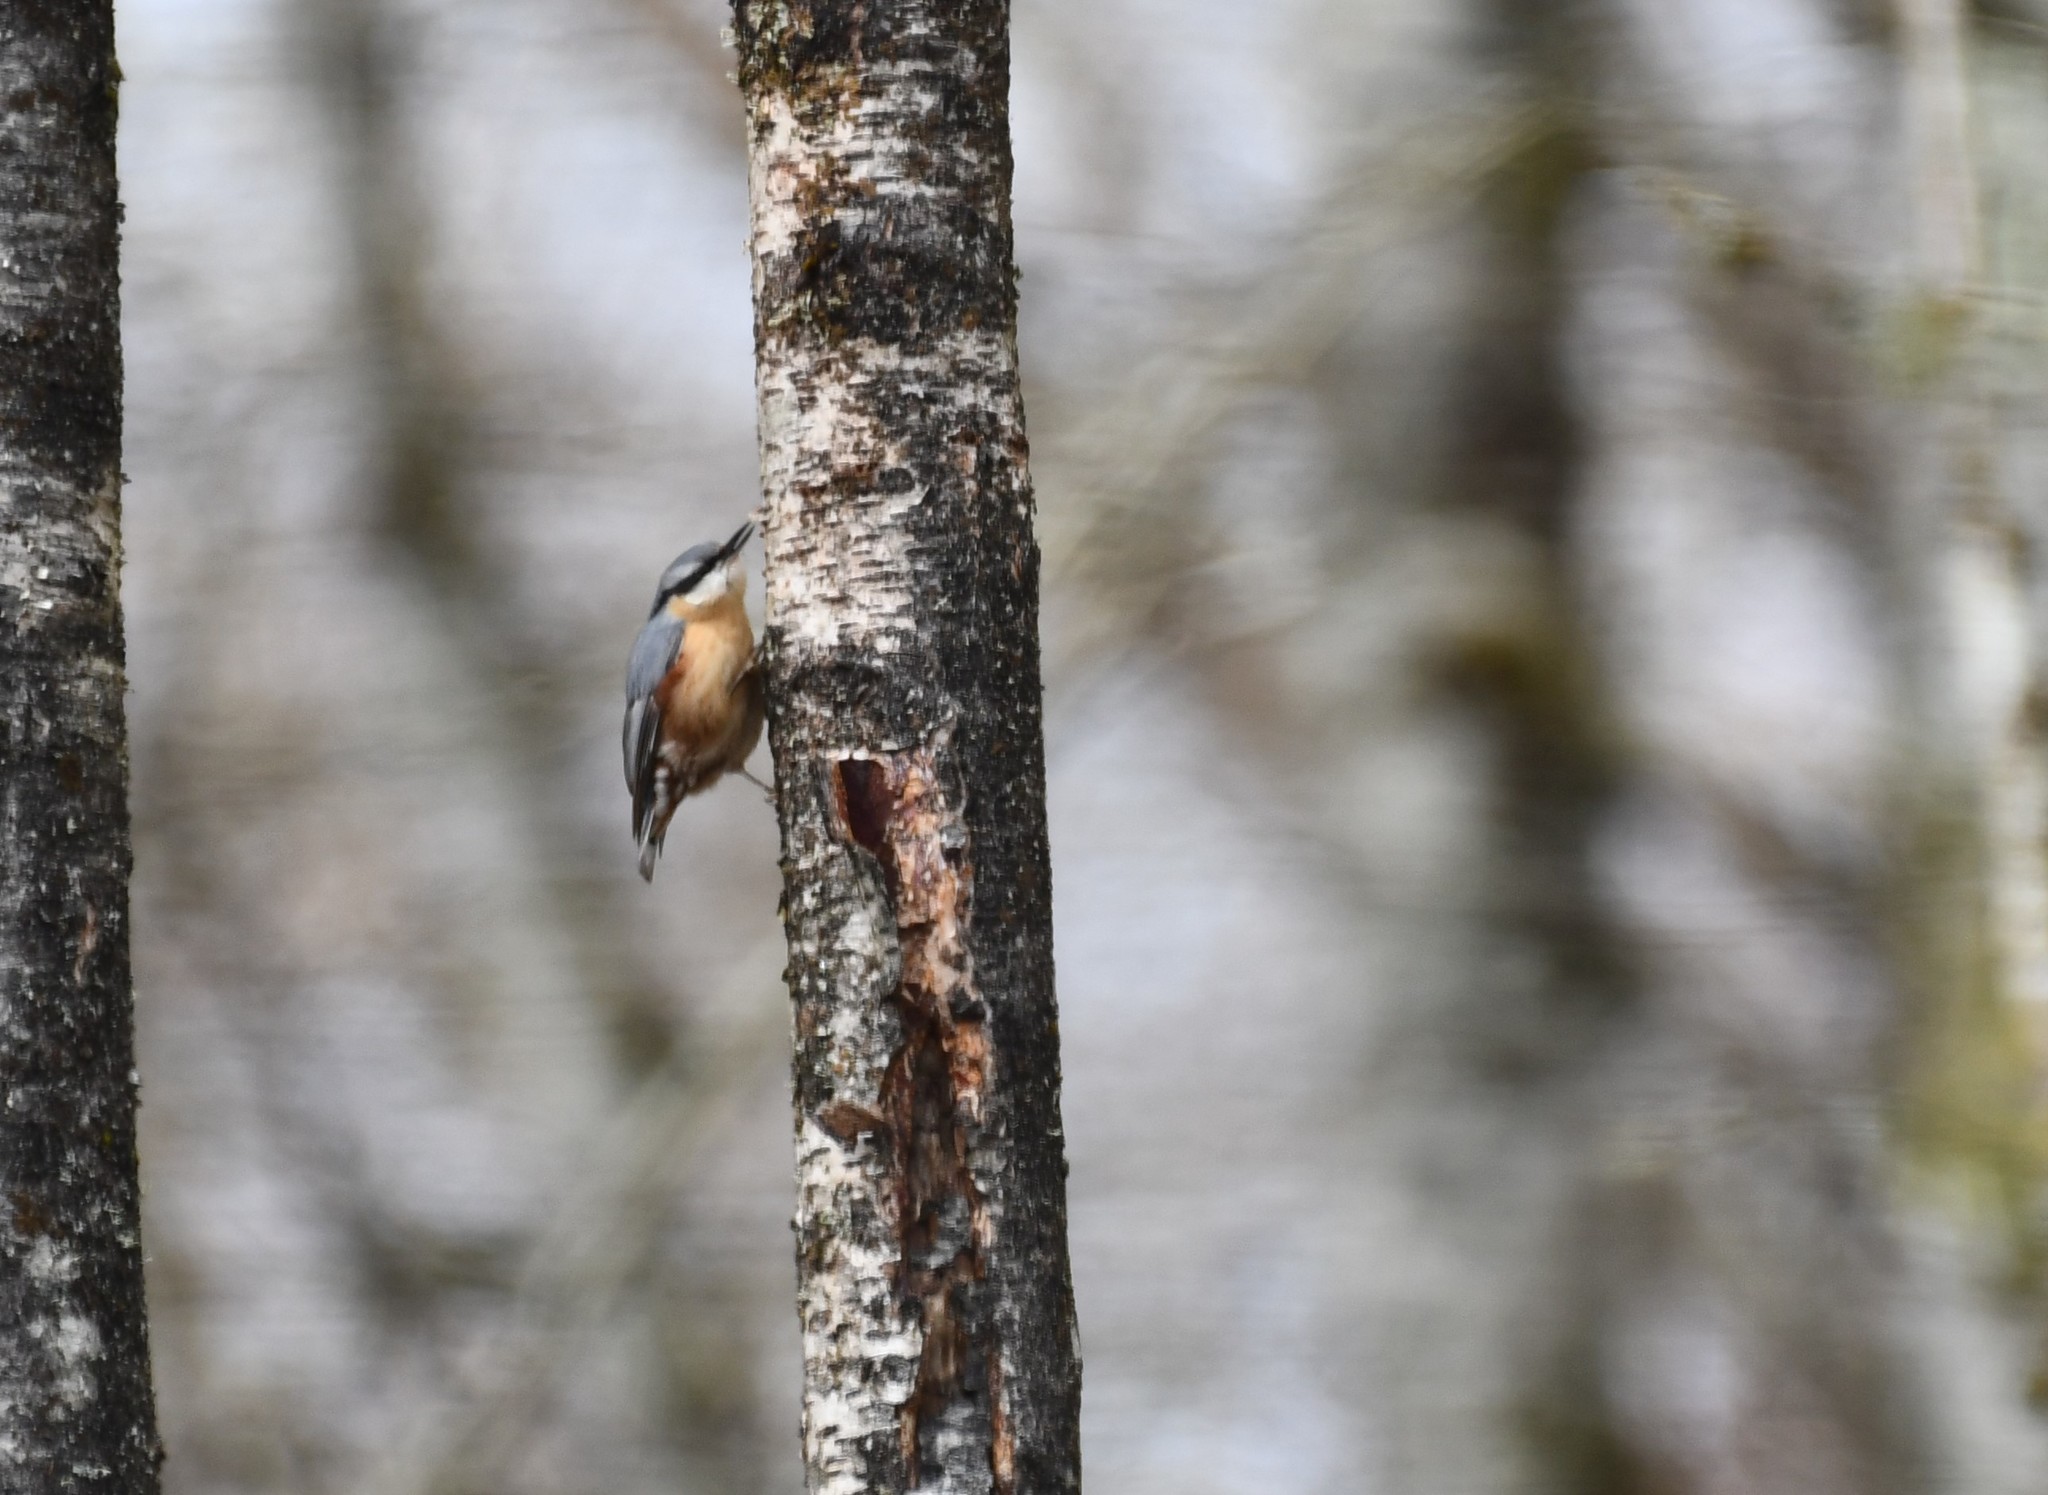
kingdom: Animalia
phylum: Chordata
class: Aves
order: Passeriformes
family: Sittidae
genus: Sitta
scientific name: Sitta europaea
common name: Eurasian nuthatch
